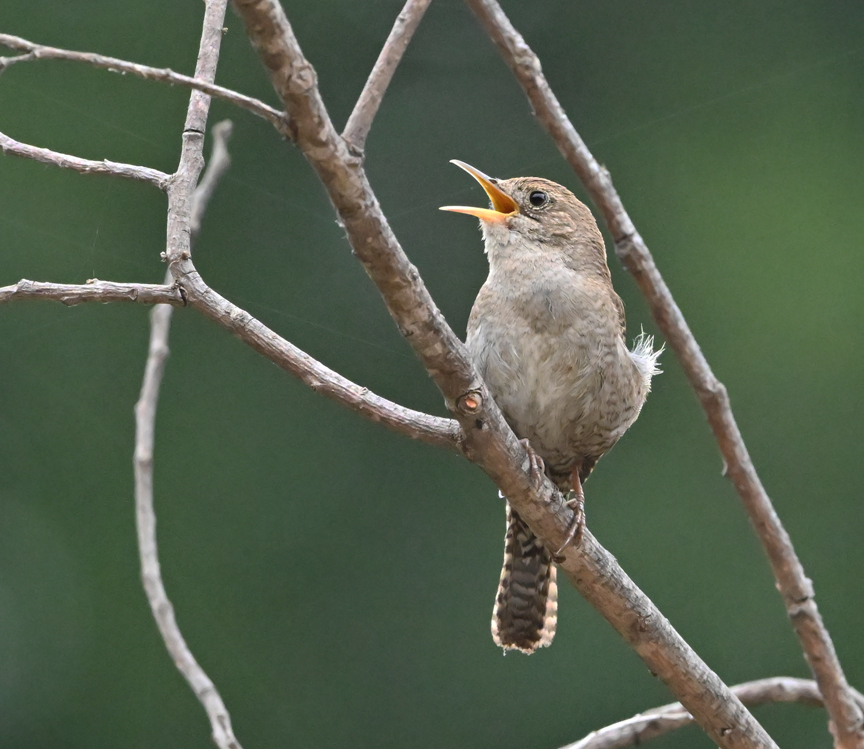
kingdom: Animalia
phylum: Chordata
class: Aves
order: Passeriformes
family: Troglodytidae
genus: Troglodytes
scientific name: Troglodytes aedon
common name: House wren
